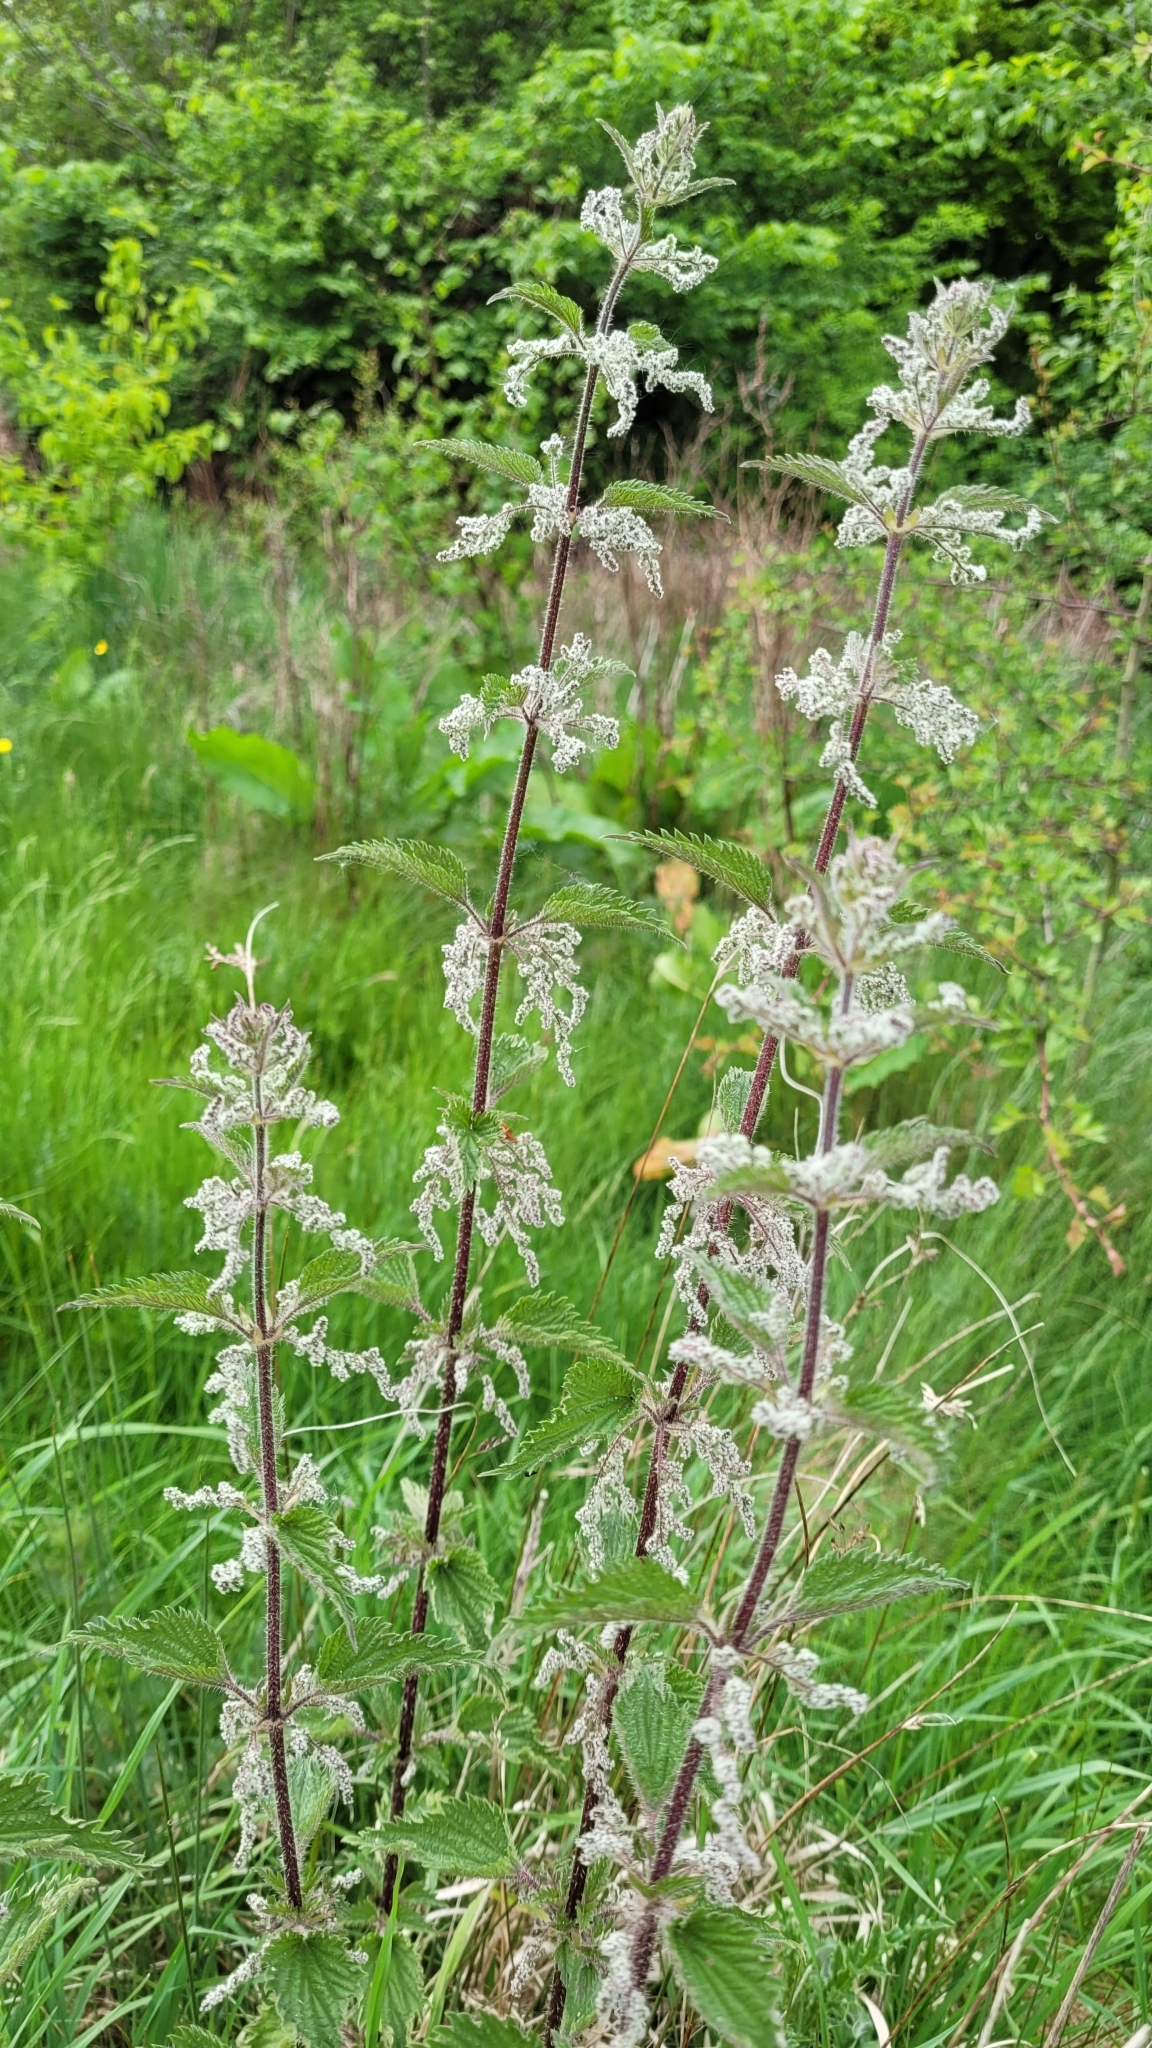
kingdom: Plantae
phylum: Tracheophyta
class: Magnoliopsida
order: Rosales
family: Urticaceae
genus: Urtica
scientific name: Urtica dioica
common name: Common nettle
